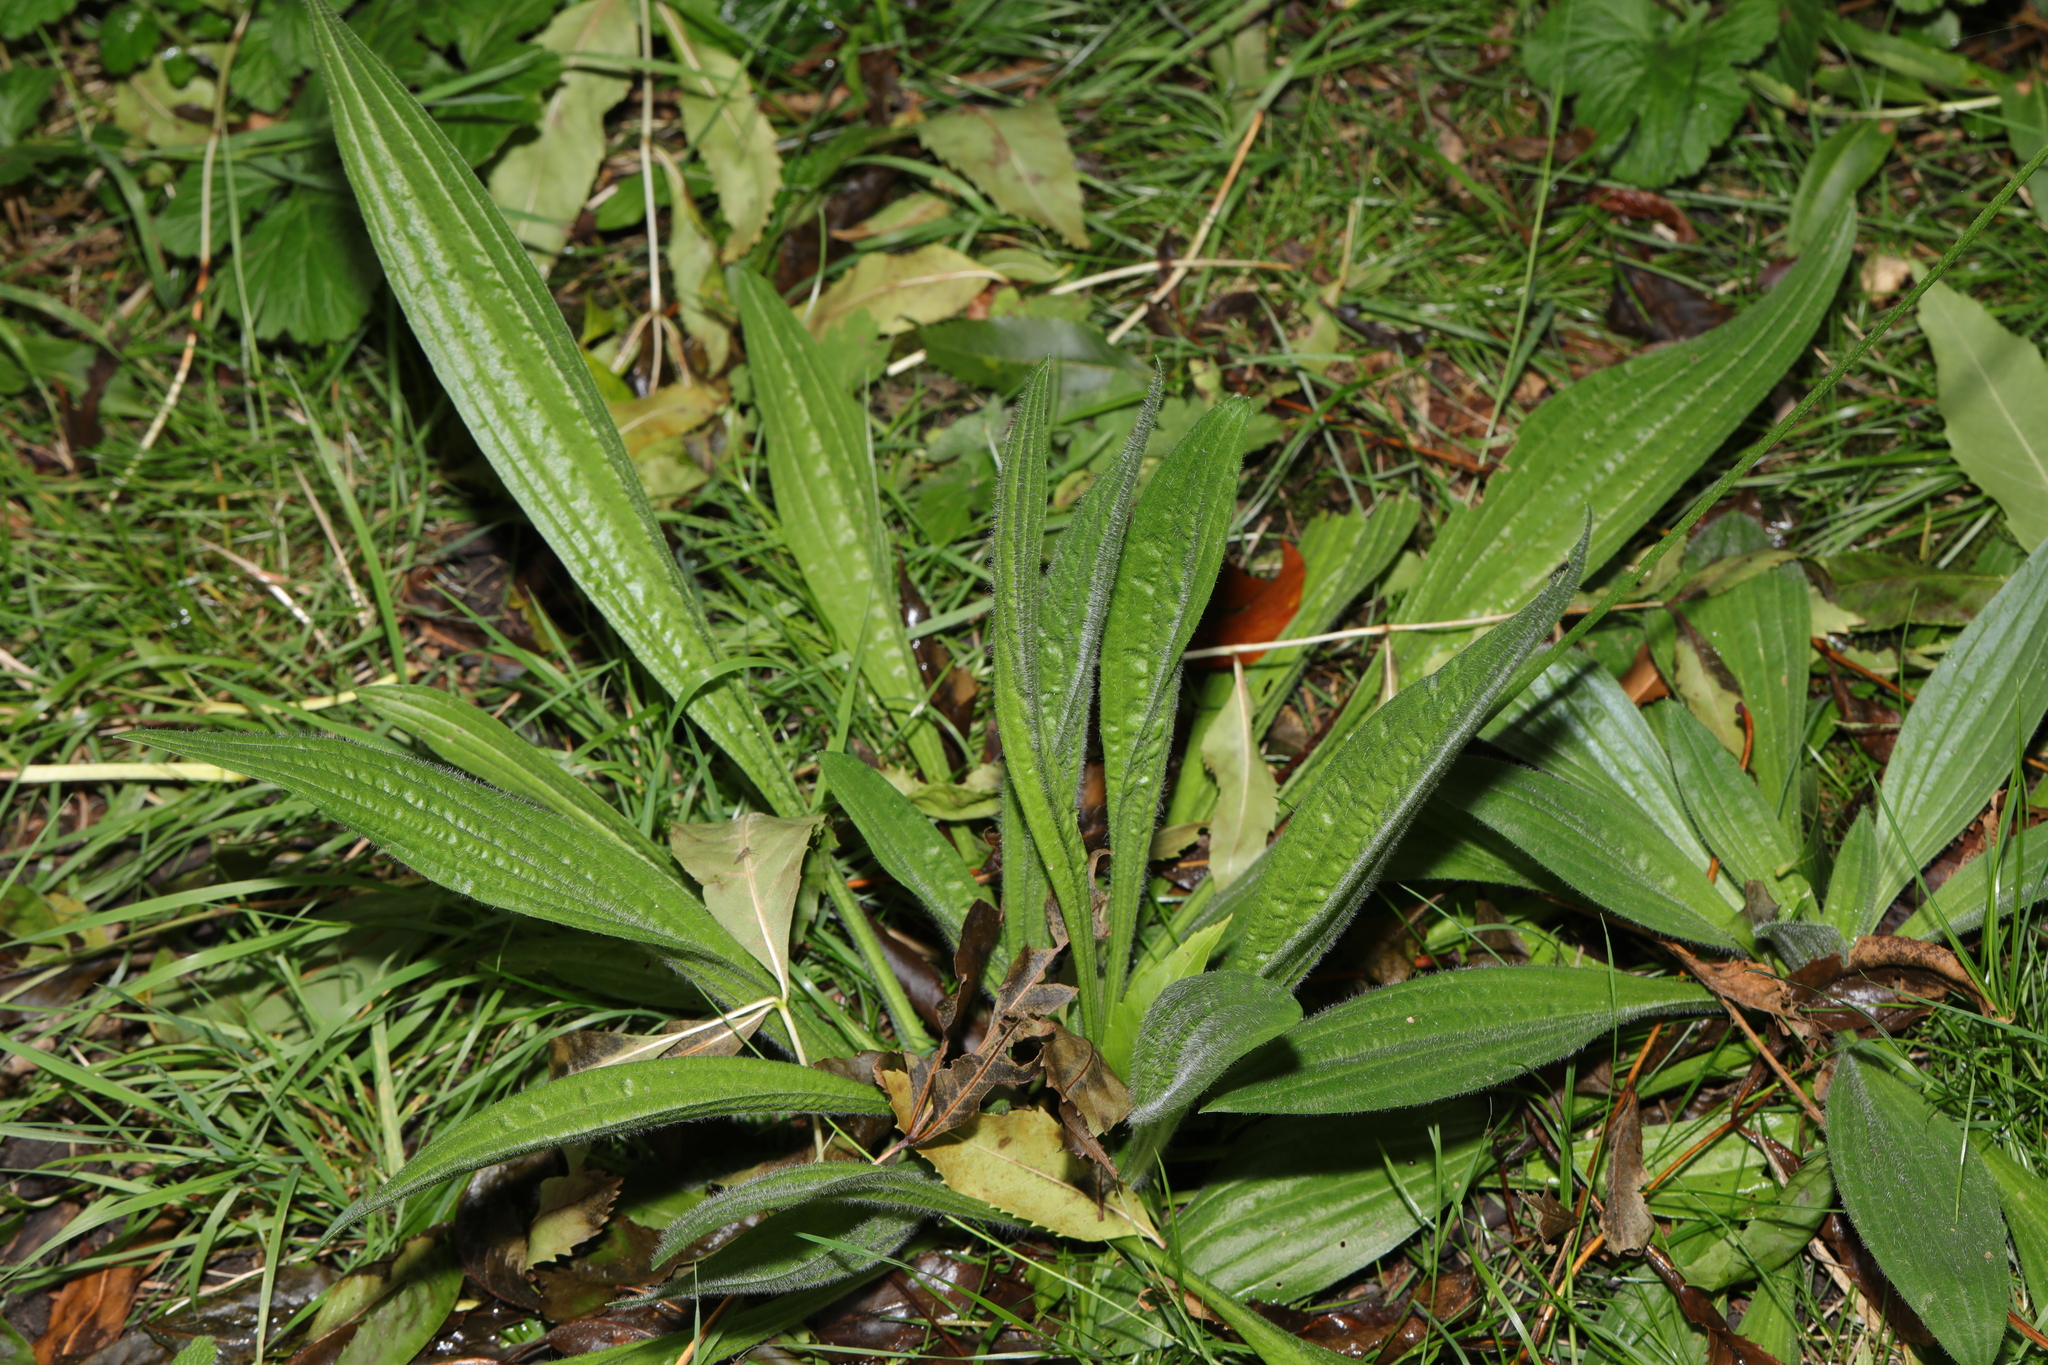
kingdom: Plantae
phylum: Tracheophyta
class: Magnoliopsida
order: Lamiales
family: Plantaginaceae
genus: Plantago
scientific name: Plantago lanceolata
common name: Ribwort plantain
